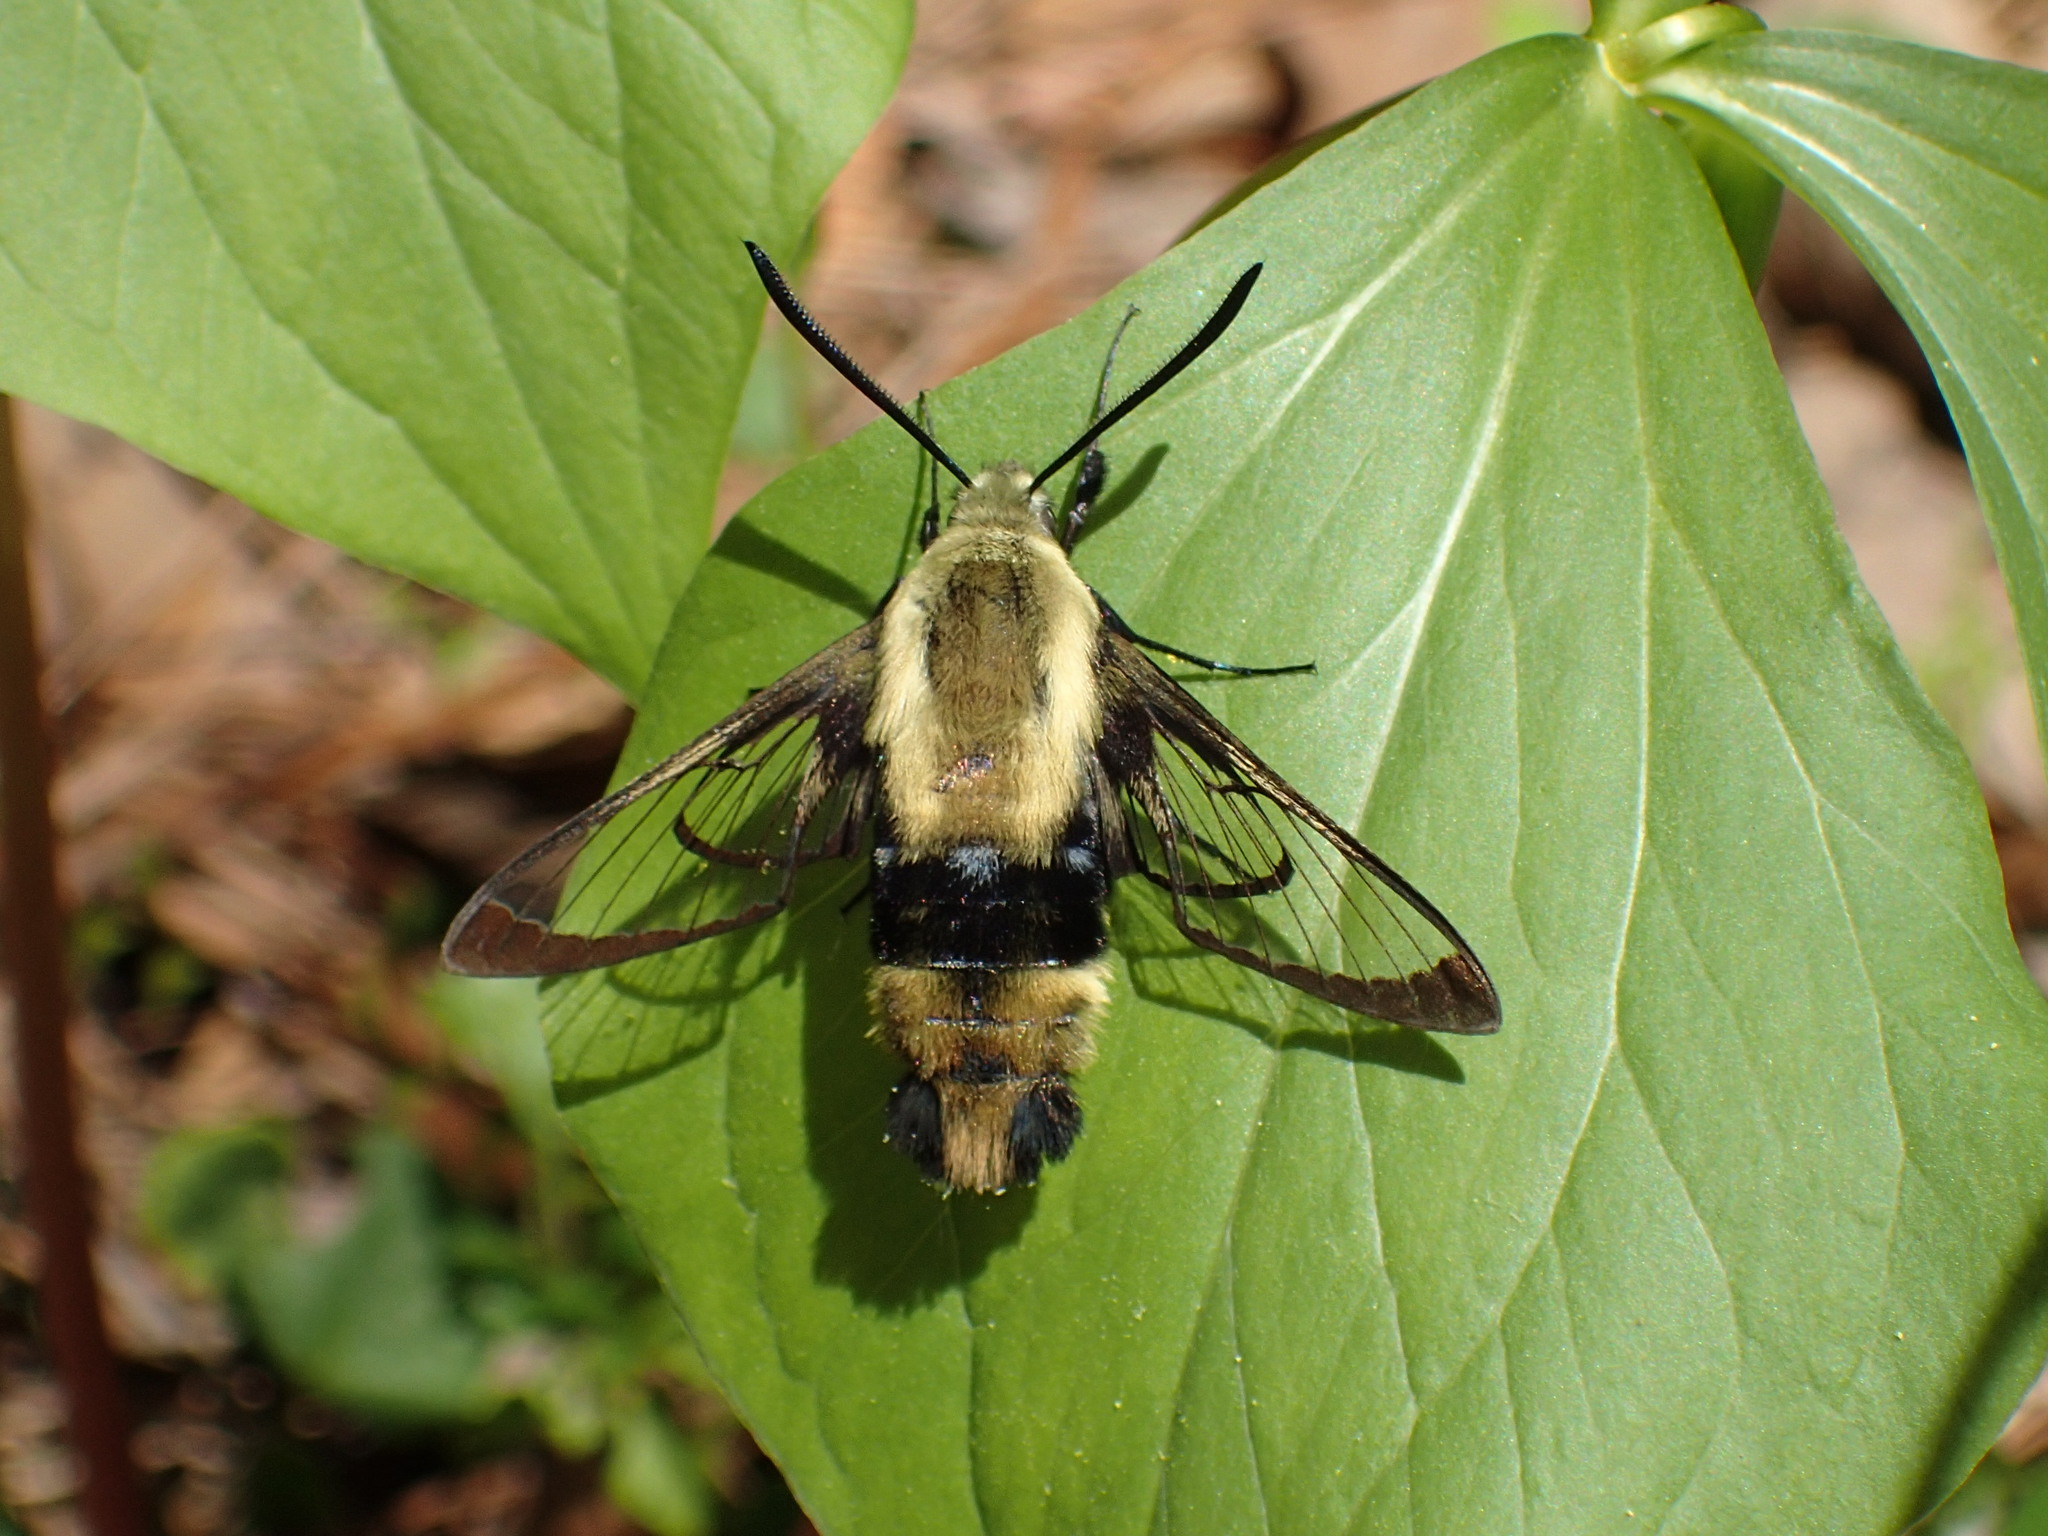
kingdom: Animalia
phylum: Arthropoda
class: Insecta
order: Lepidoptera
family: Sphingidae
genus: Hemaris
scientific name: Hemaris diffinis
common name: Bumblebee moth
